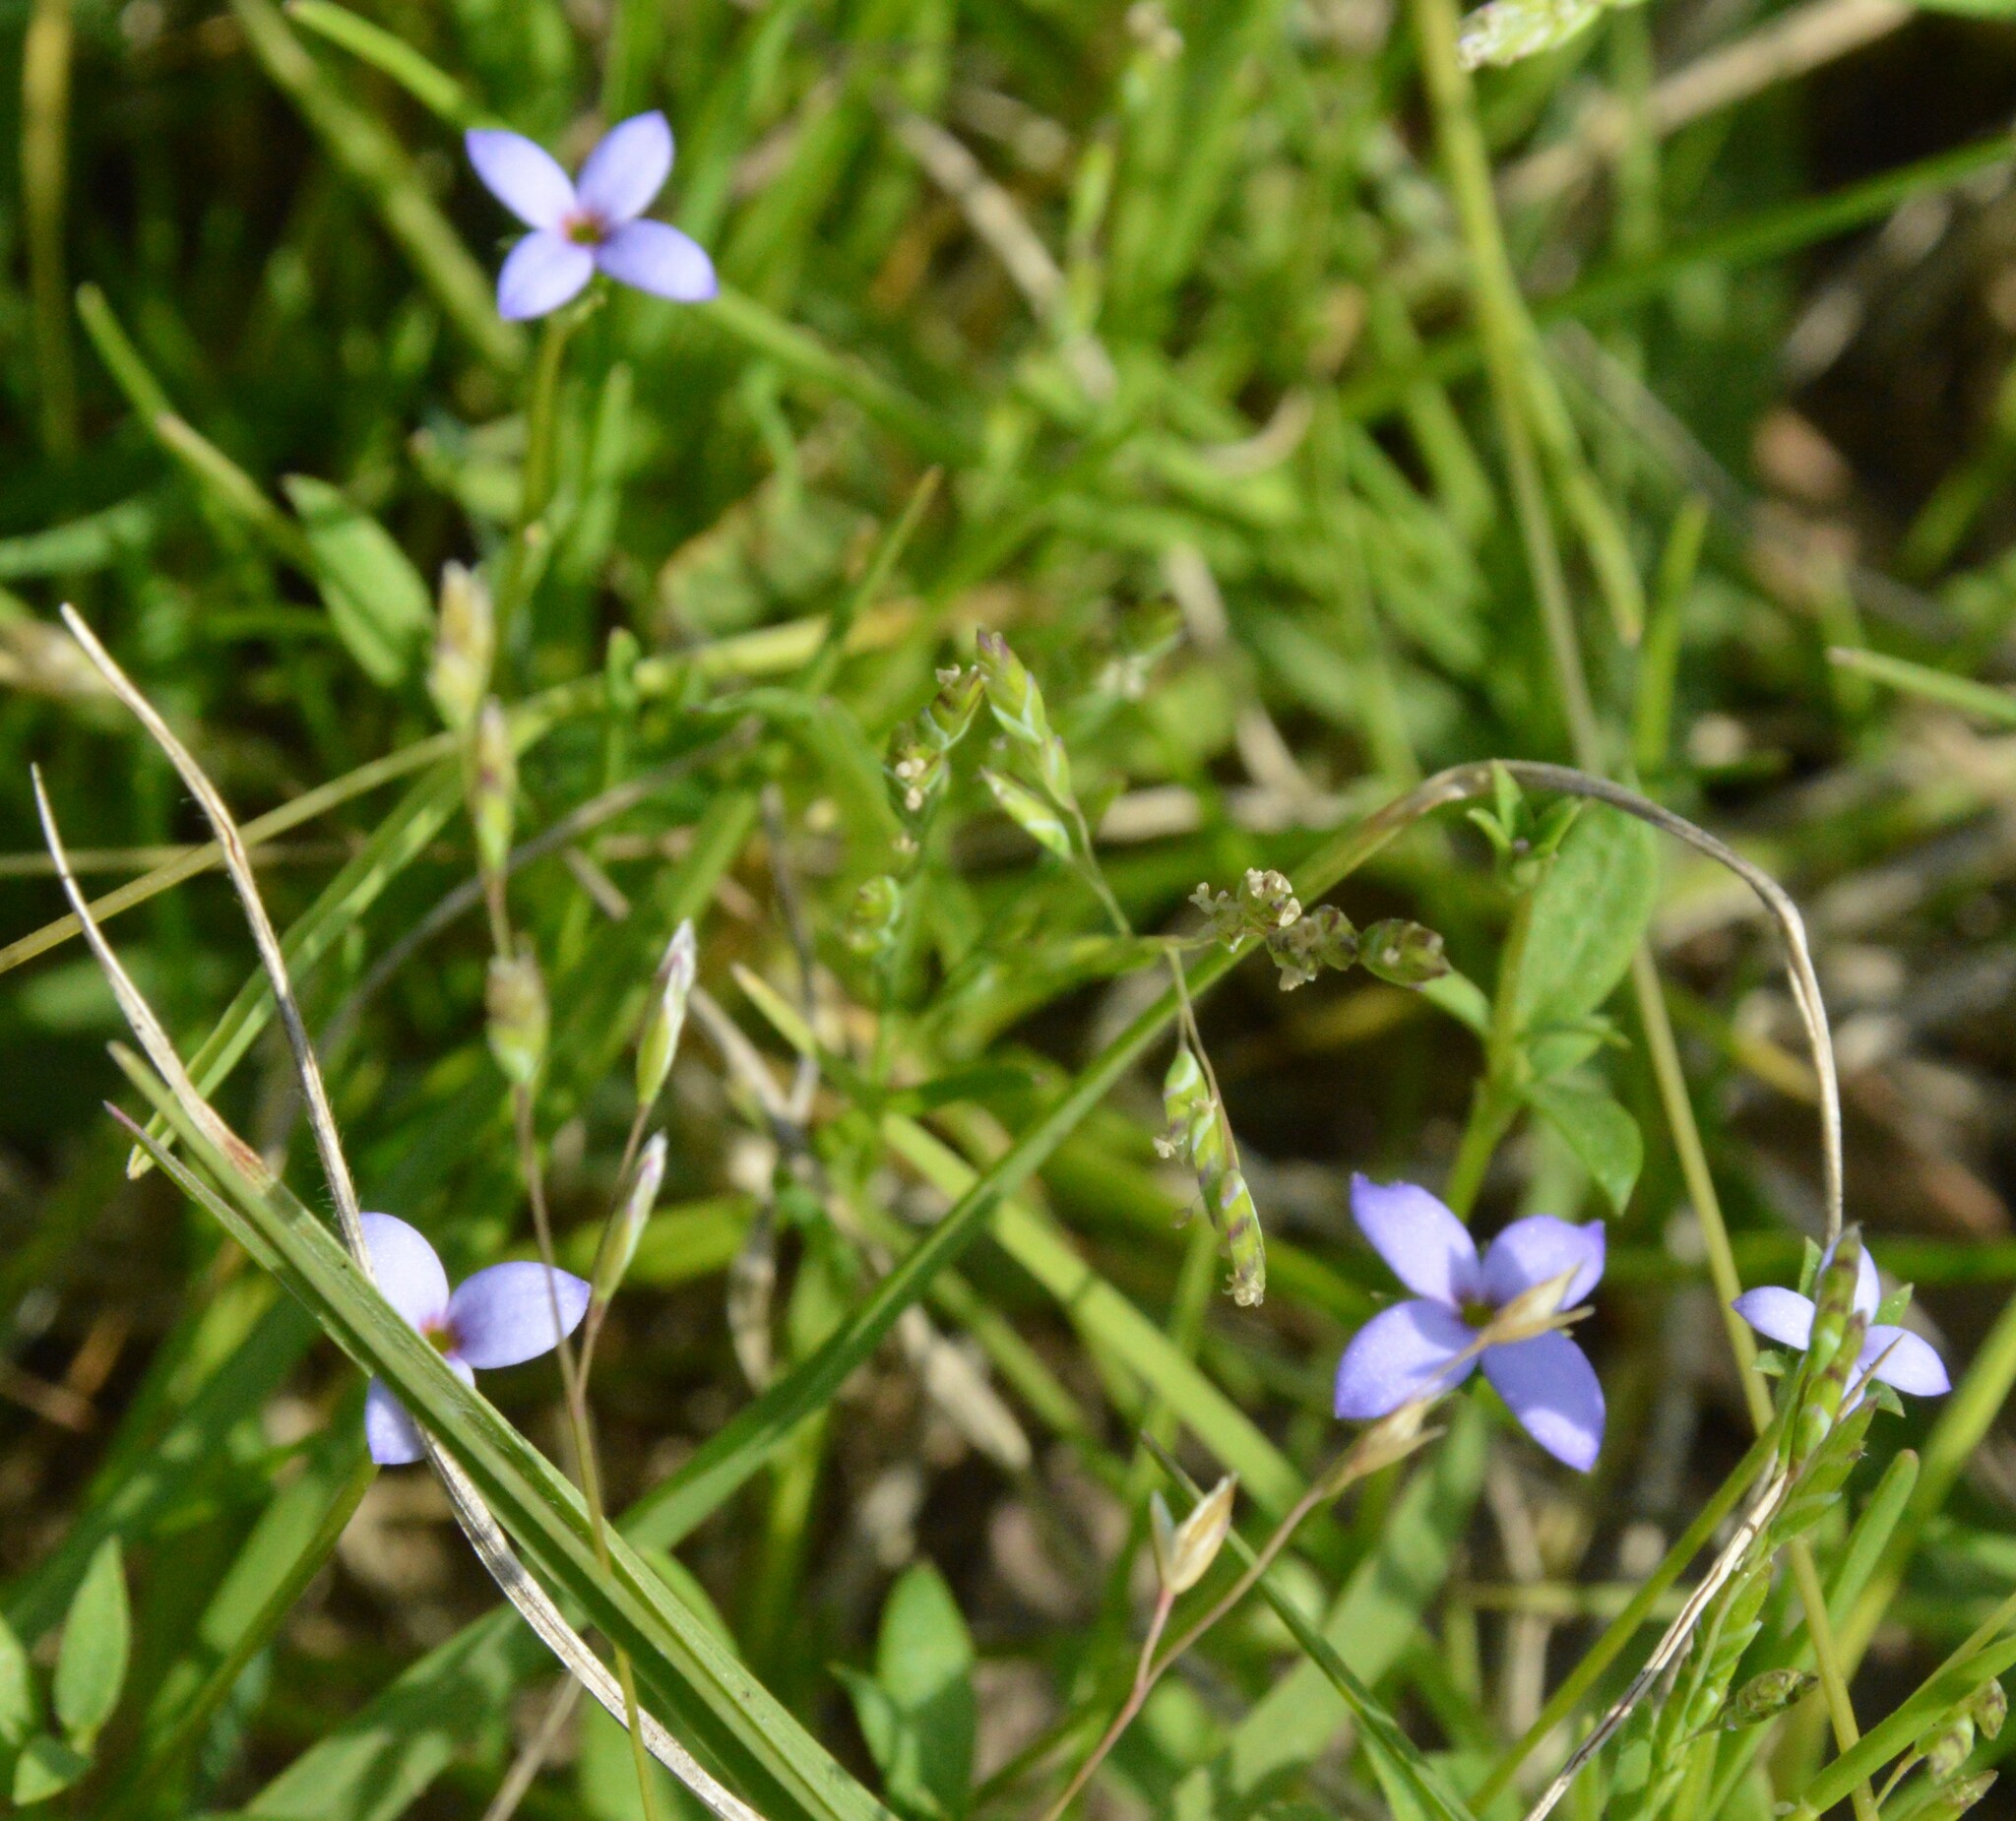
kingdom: Plantae
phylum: Tracheophyta
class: Magnoliopsida
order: Gentianales
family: Rubiaceae
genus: Houstonia
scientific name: Houstonia pusilla
